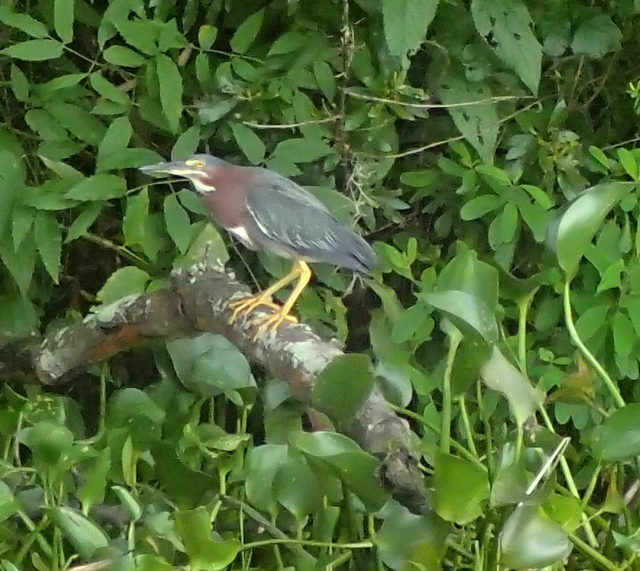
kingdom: Animalia
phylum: Chordata
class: Aves
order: Pelecaniformes
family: Ardeidae
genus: Butorides
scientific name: Butorides virescens
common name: Green heron
